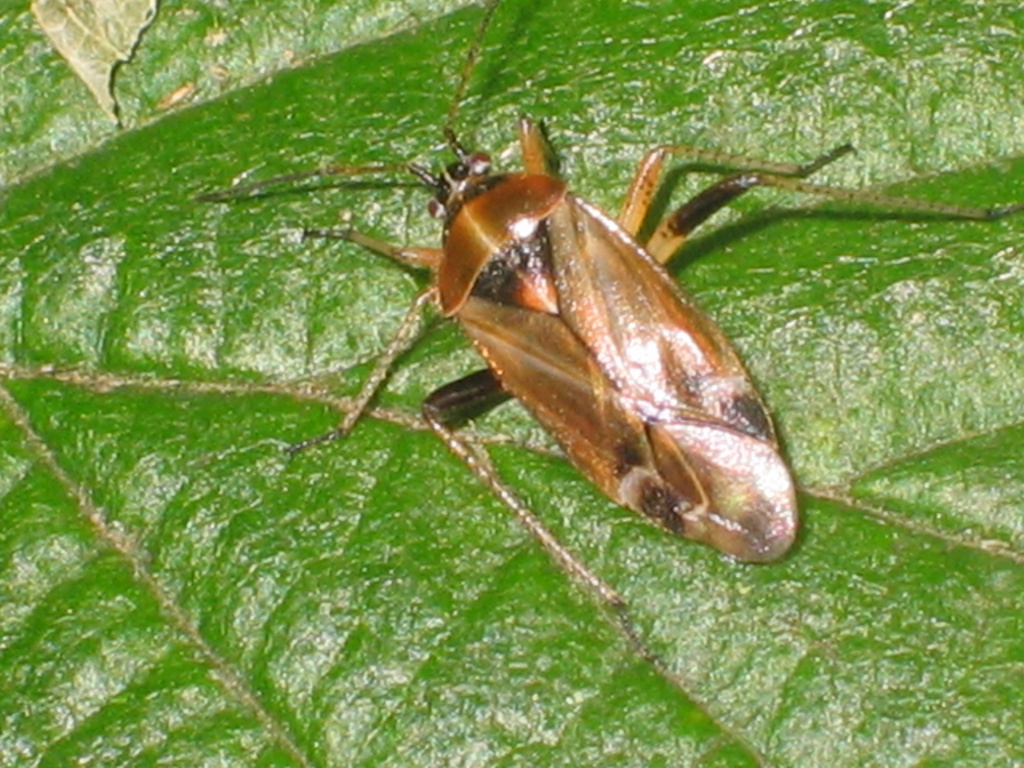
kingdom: Animalia
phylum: Arthropoda
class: Insecta
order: Hemiptera
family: Miridae
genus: Harpocera
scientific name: Harpocera thoracica
